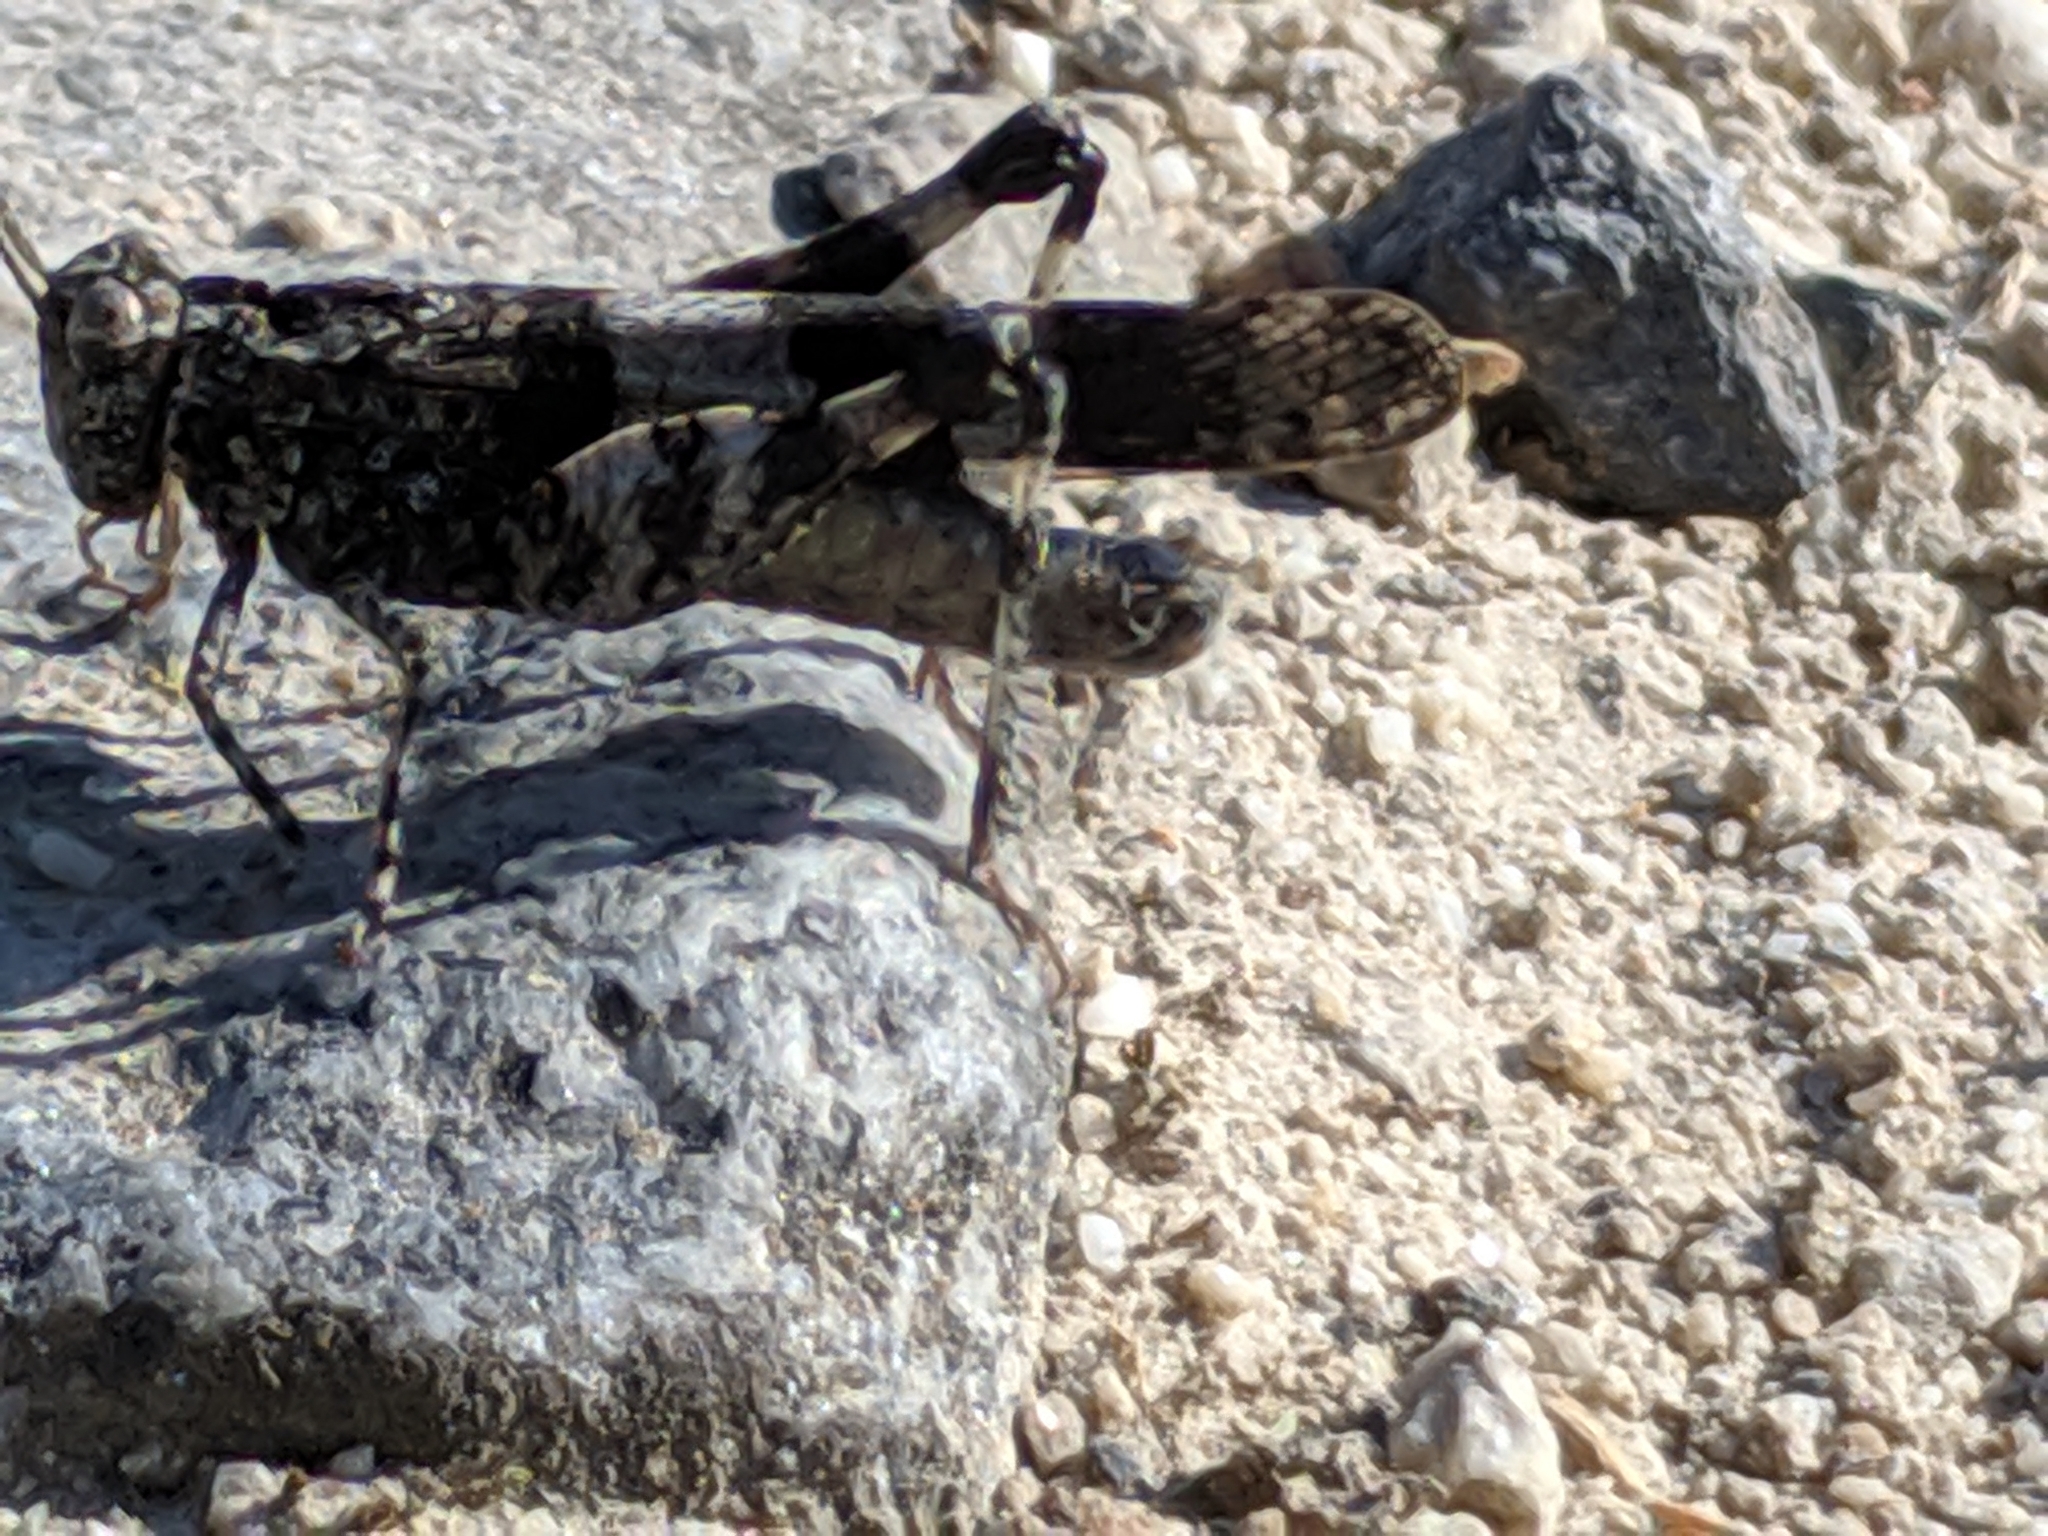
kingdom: Animalia
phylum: Arthropoda
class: Insecta
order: Orthoptera
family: Acrididae
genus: Oedipoda
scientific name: Oedipoda caerulescens
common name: Blue-winged grasshopper
